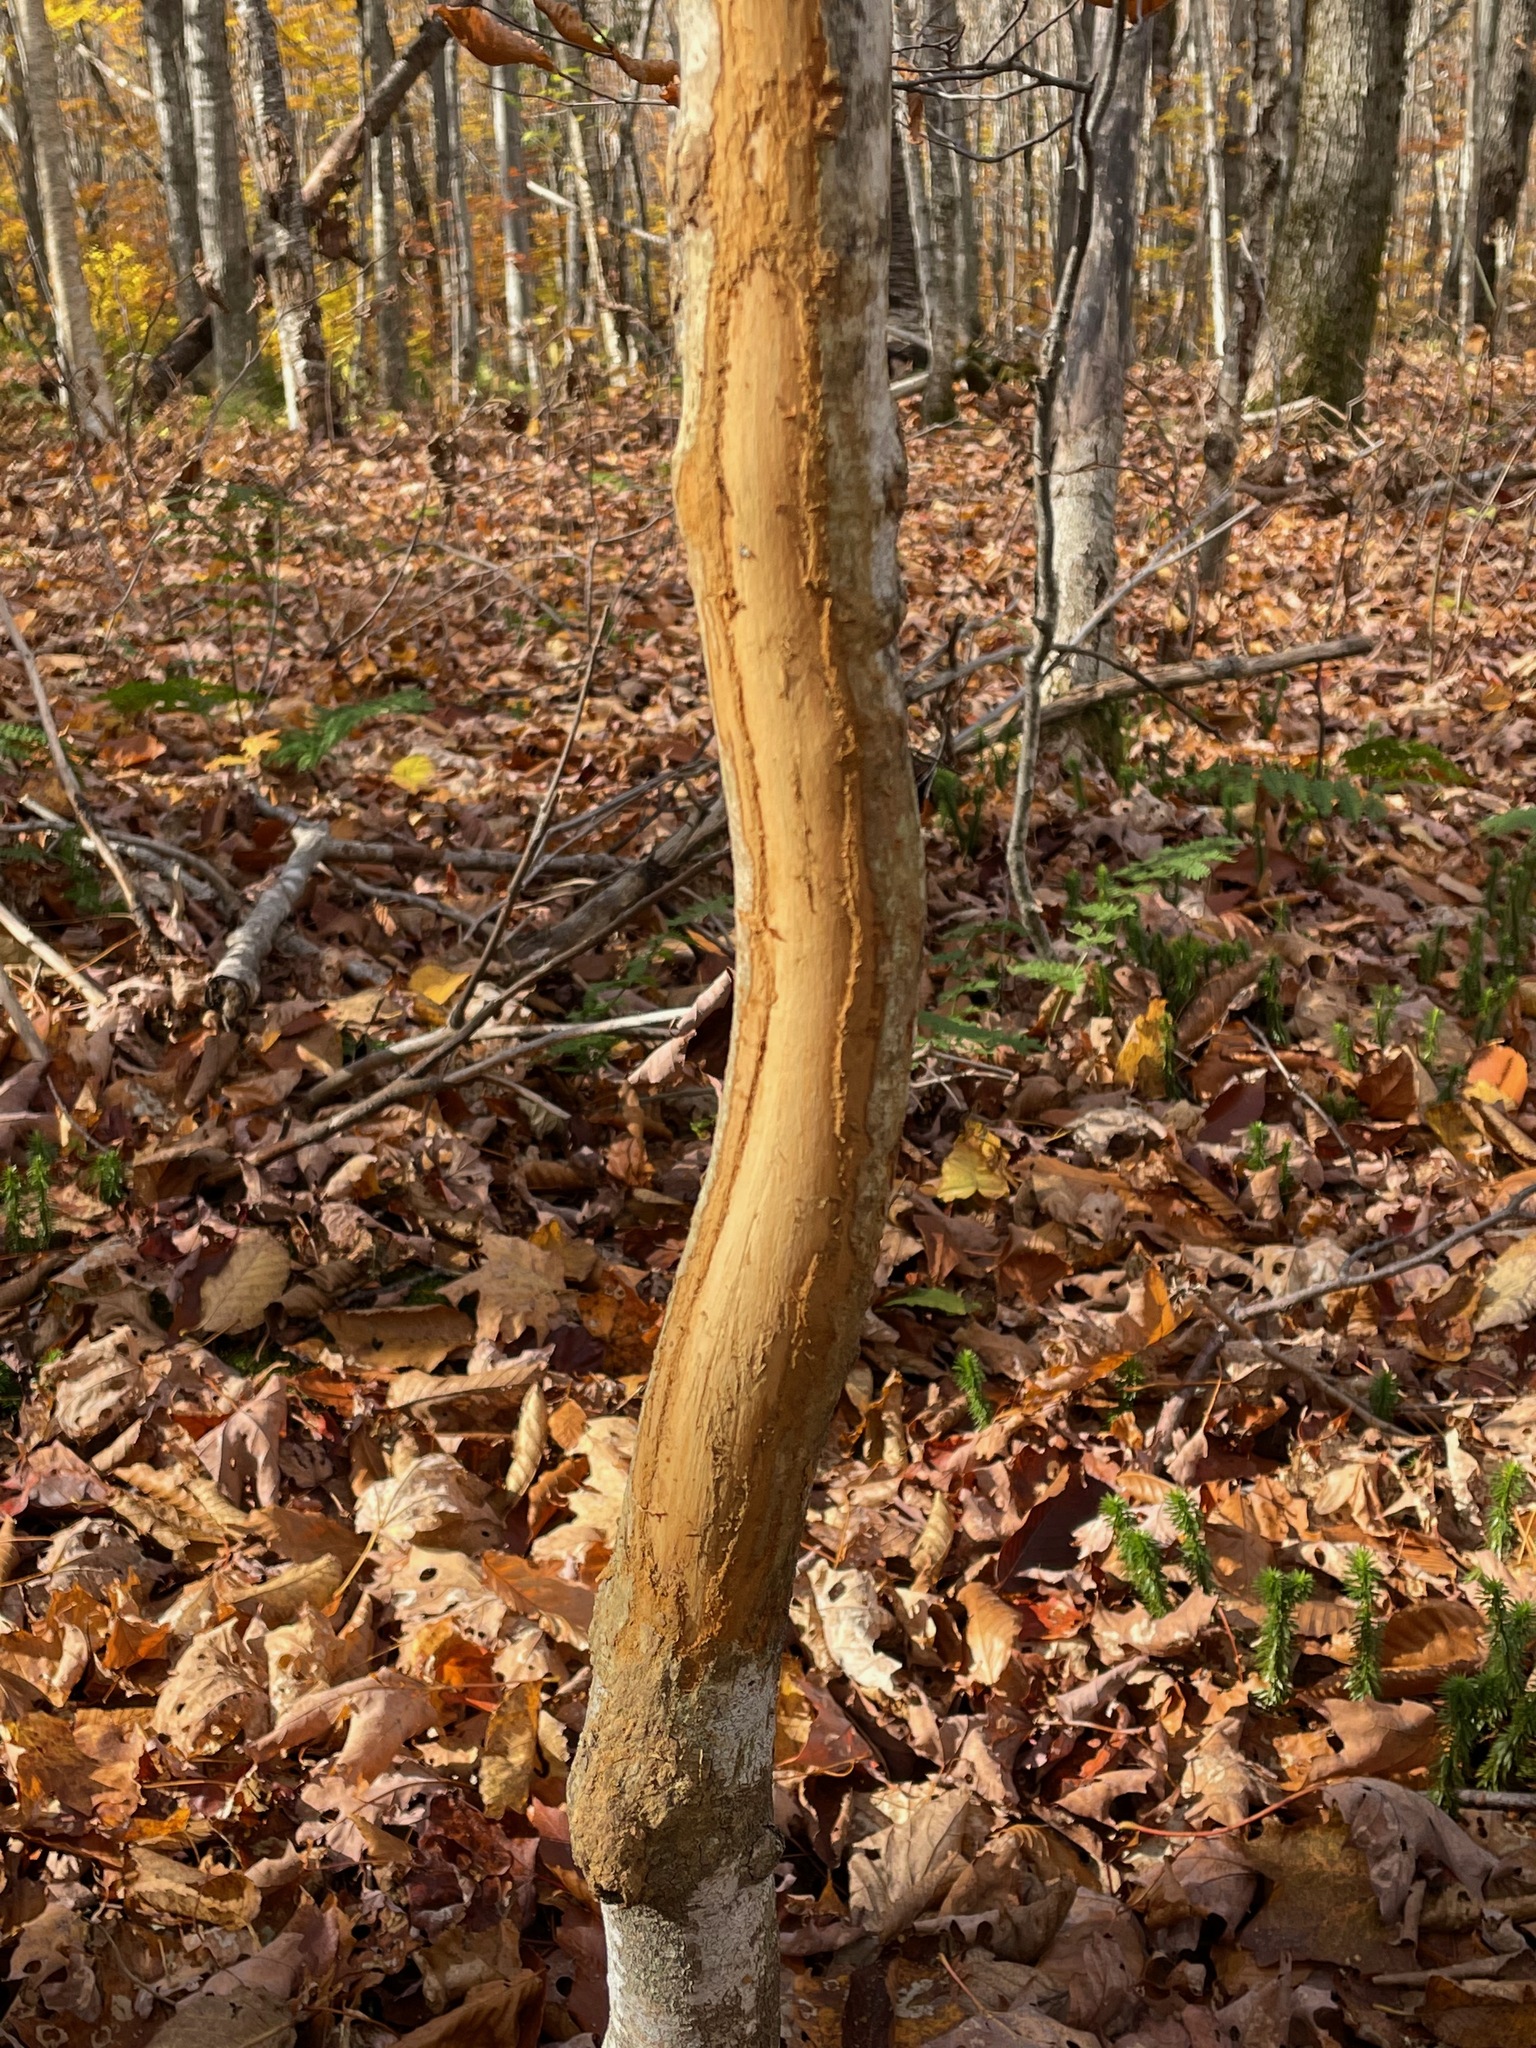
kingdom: Animalia
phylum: Chordata
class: Mammalia
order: Artiodactyla
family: Cervidae
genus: Odocoileus
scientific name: Odocoileus virginianus
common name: White-tailed deer
